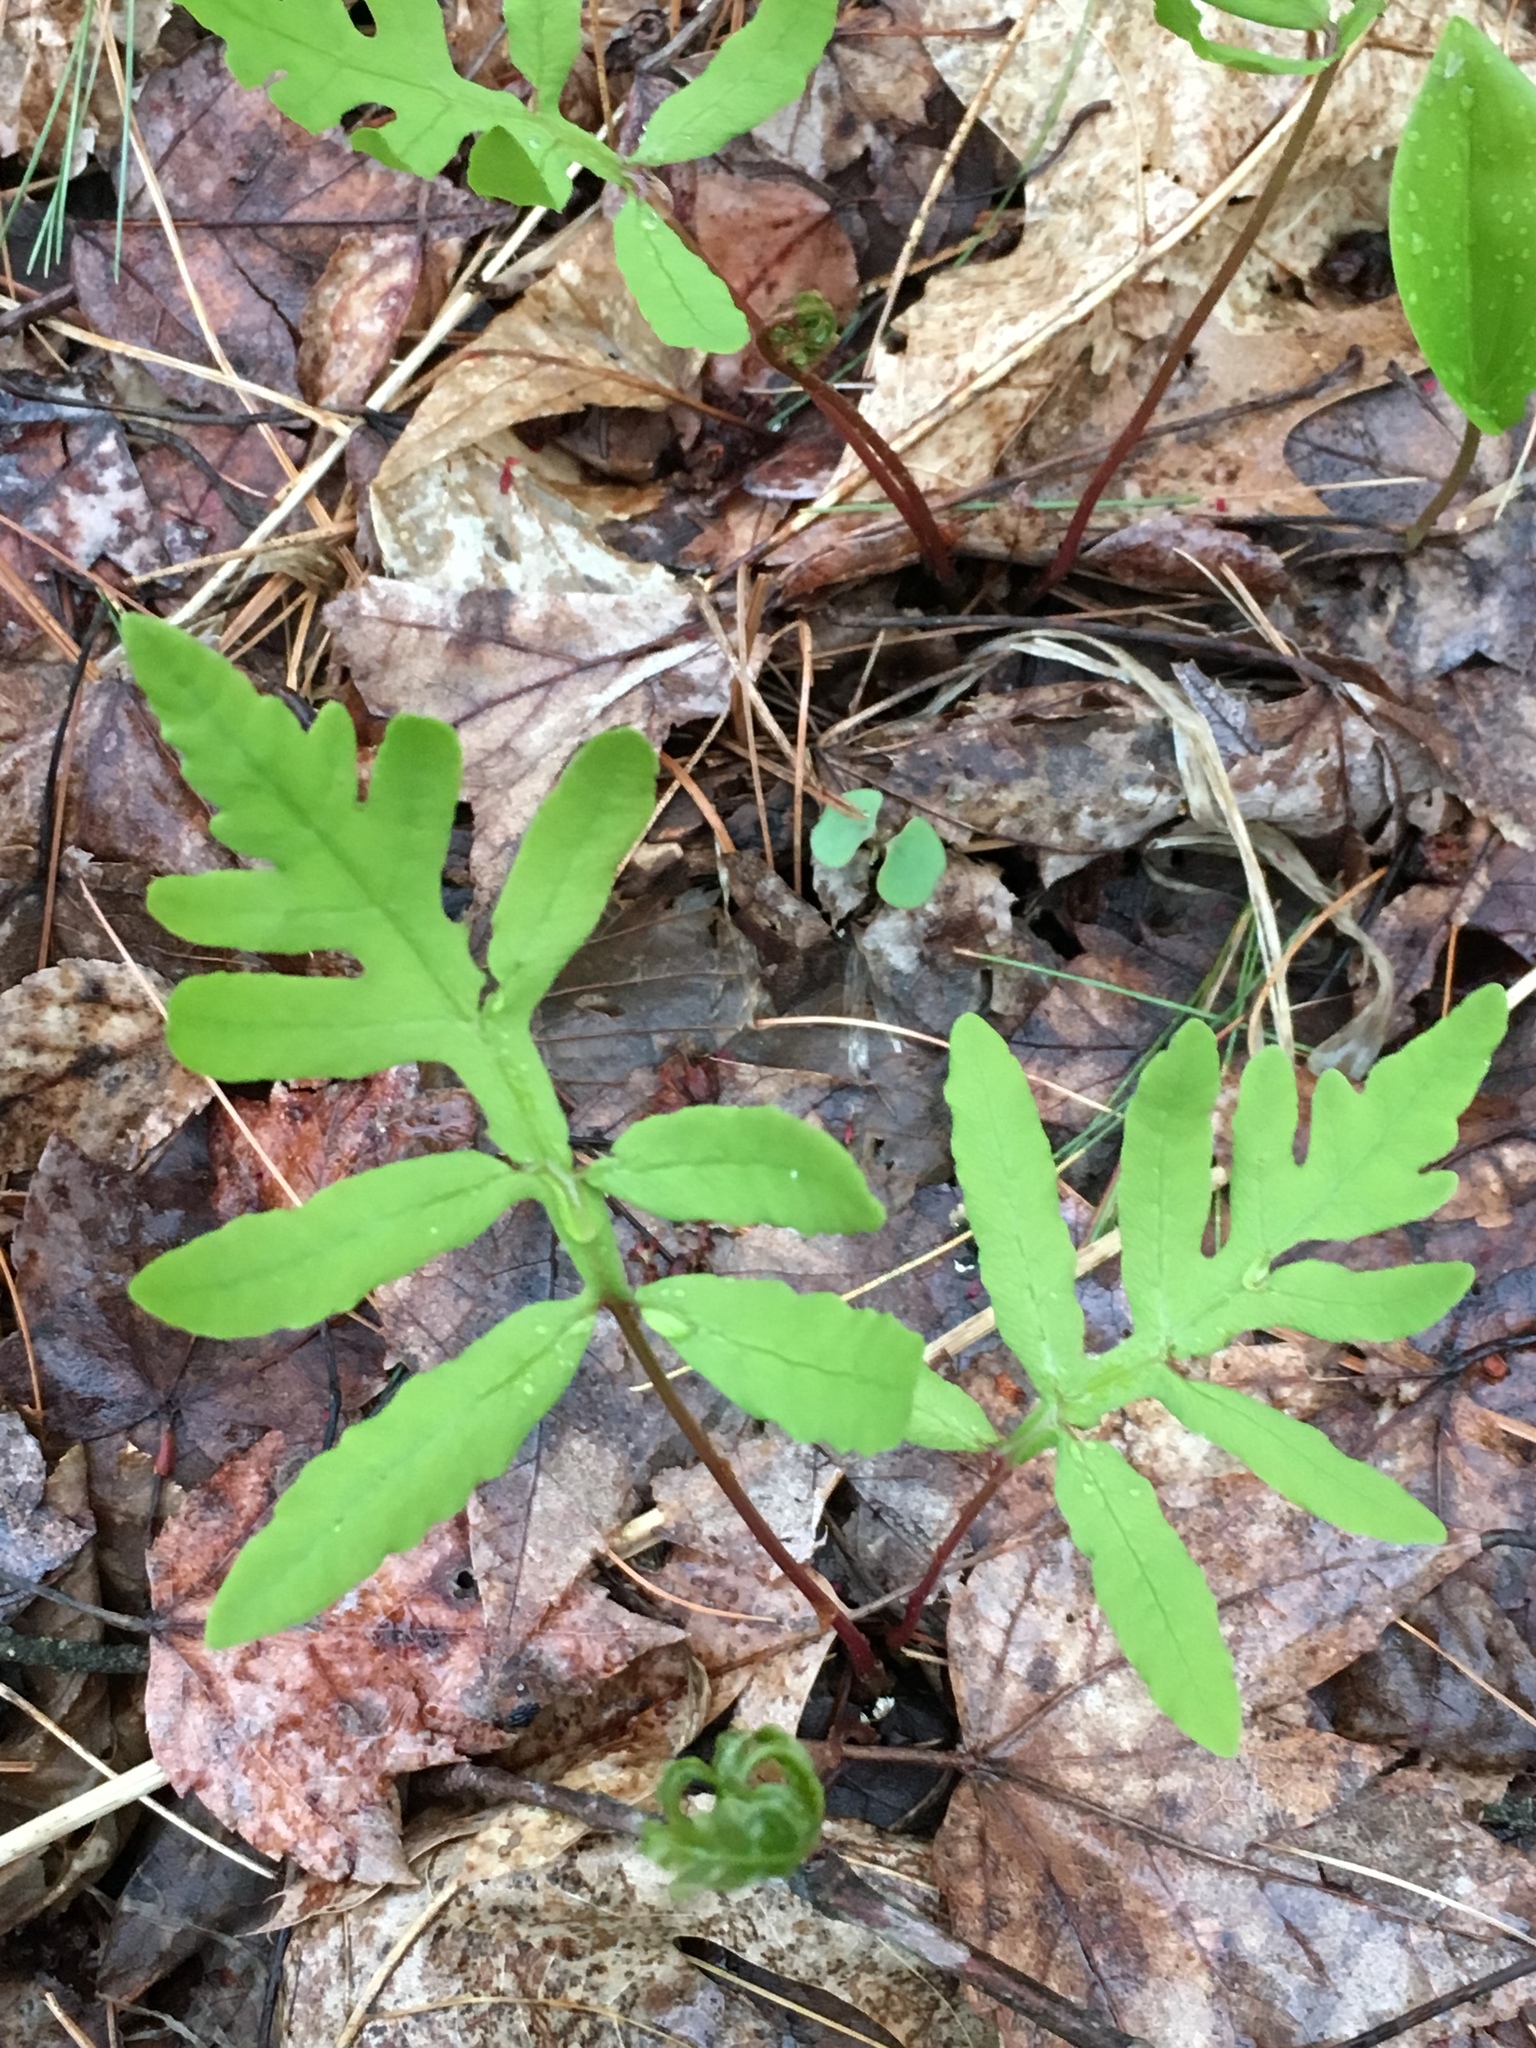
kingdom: Plantae
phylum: Tracheophyta
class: Polypodiopsida
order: Polypodiales
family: Onocleaceae
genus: Onoclea
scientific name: Onoclea sensibilis
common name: Sensitive fern
